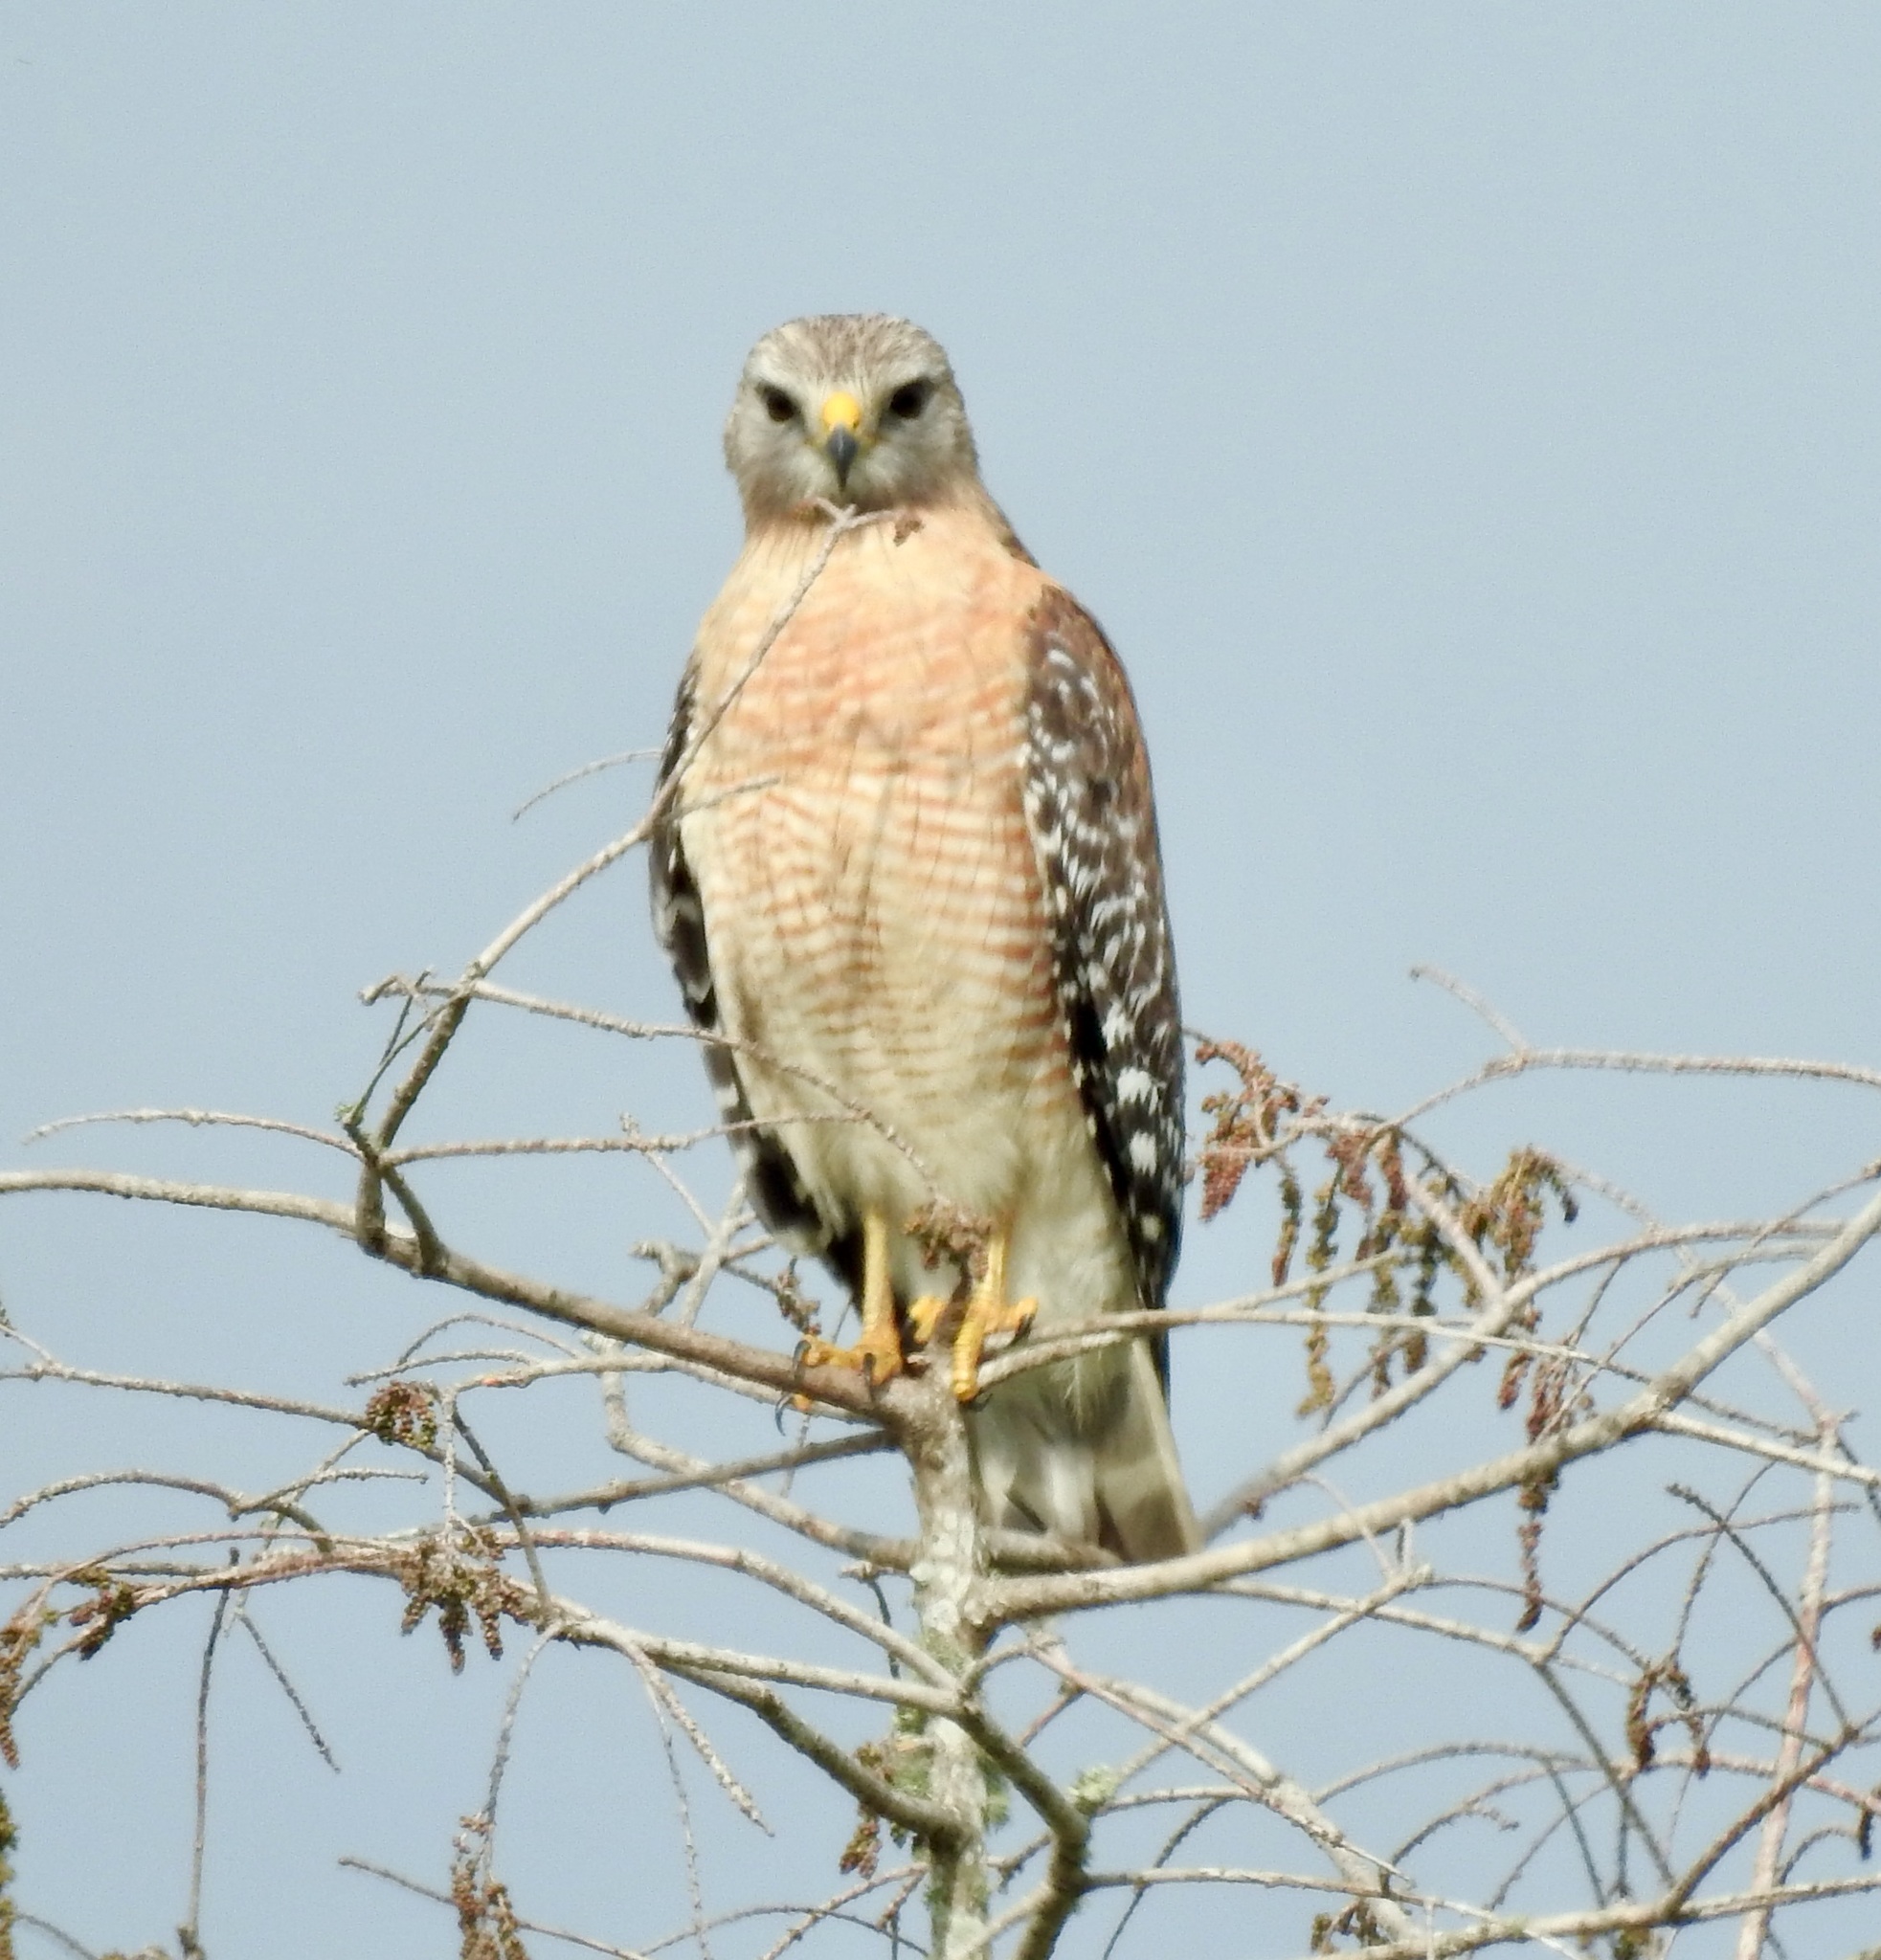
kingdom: Animalia
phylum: Chordata
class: Aves
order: Accipitriformes
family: Accipitridae
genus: Buteo
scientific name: Buteo lineatus
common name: Red-shouldered hawk
